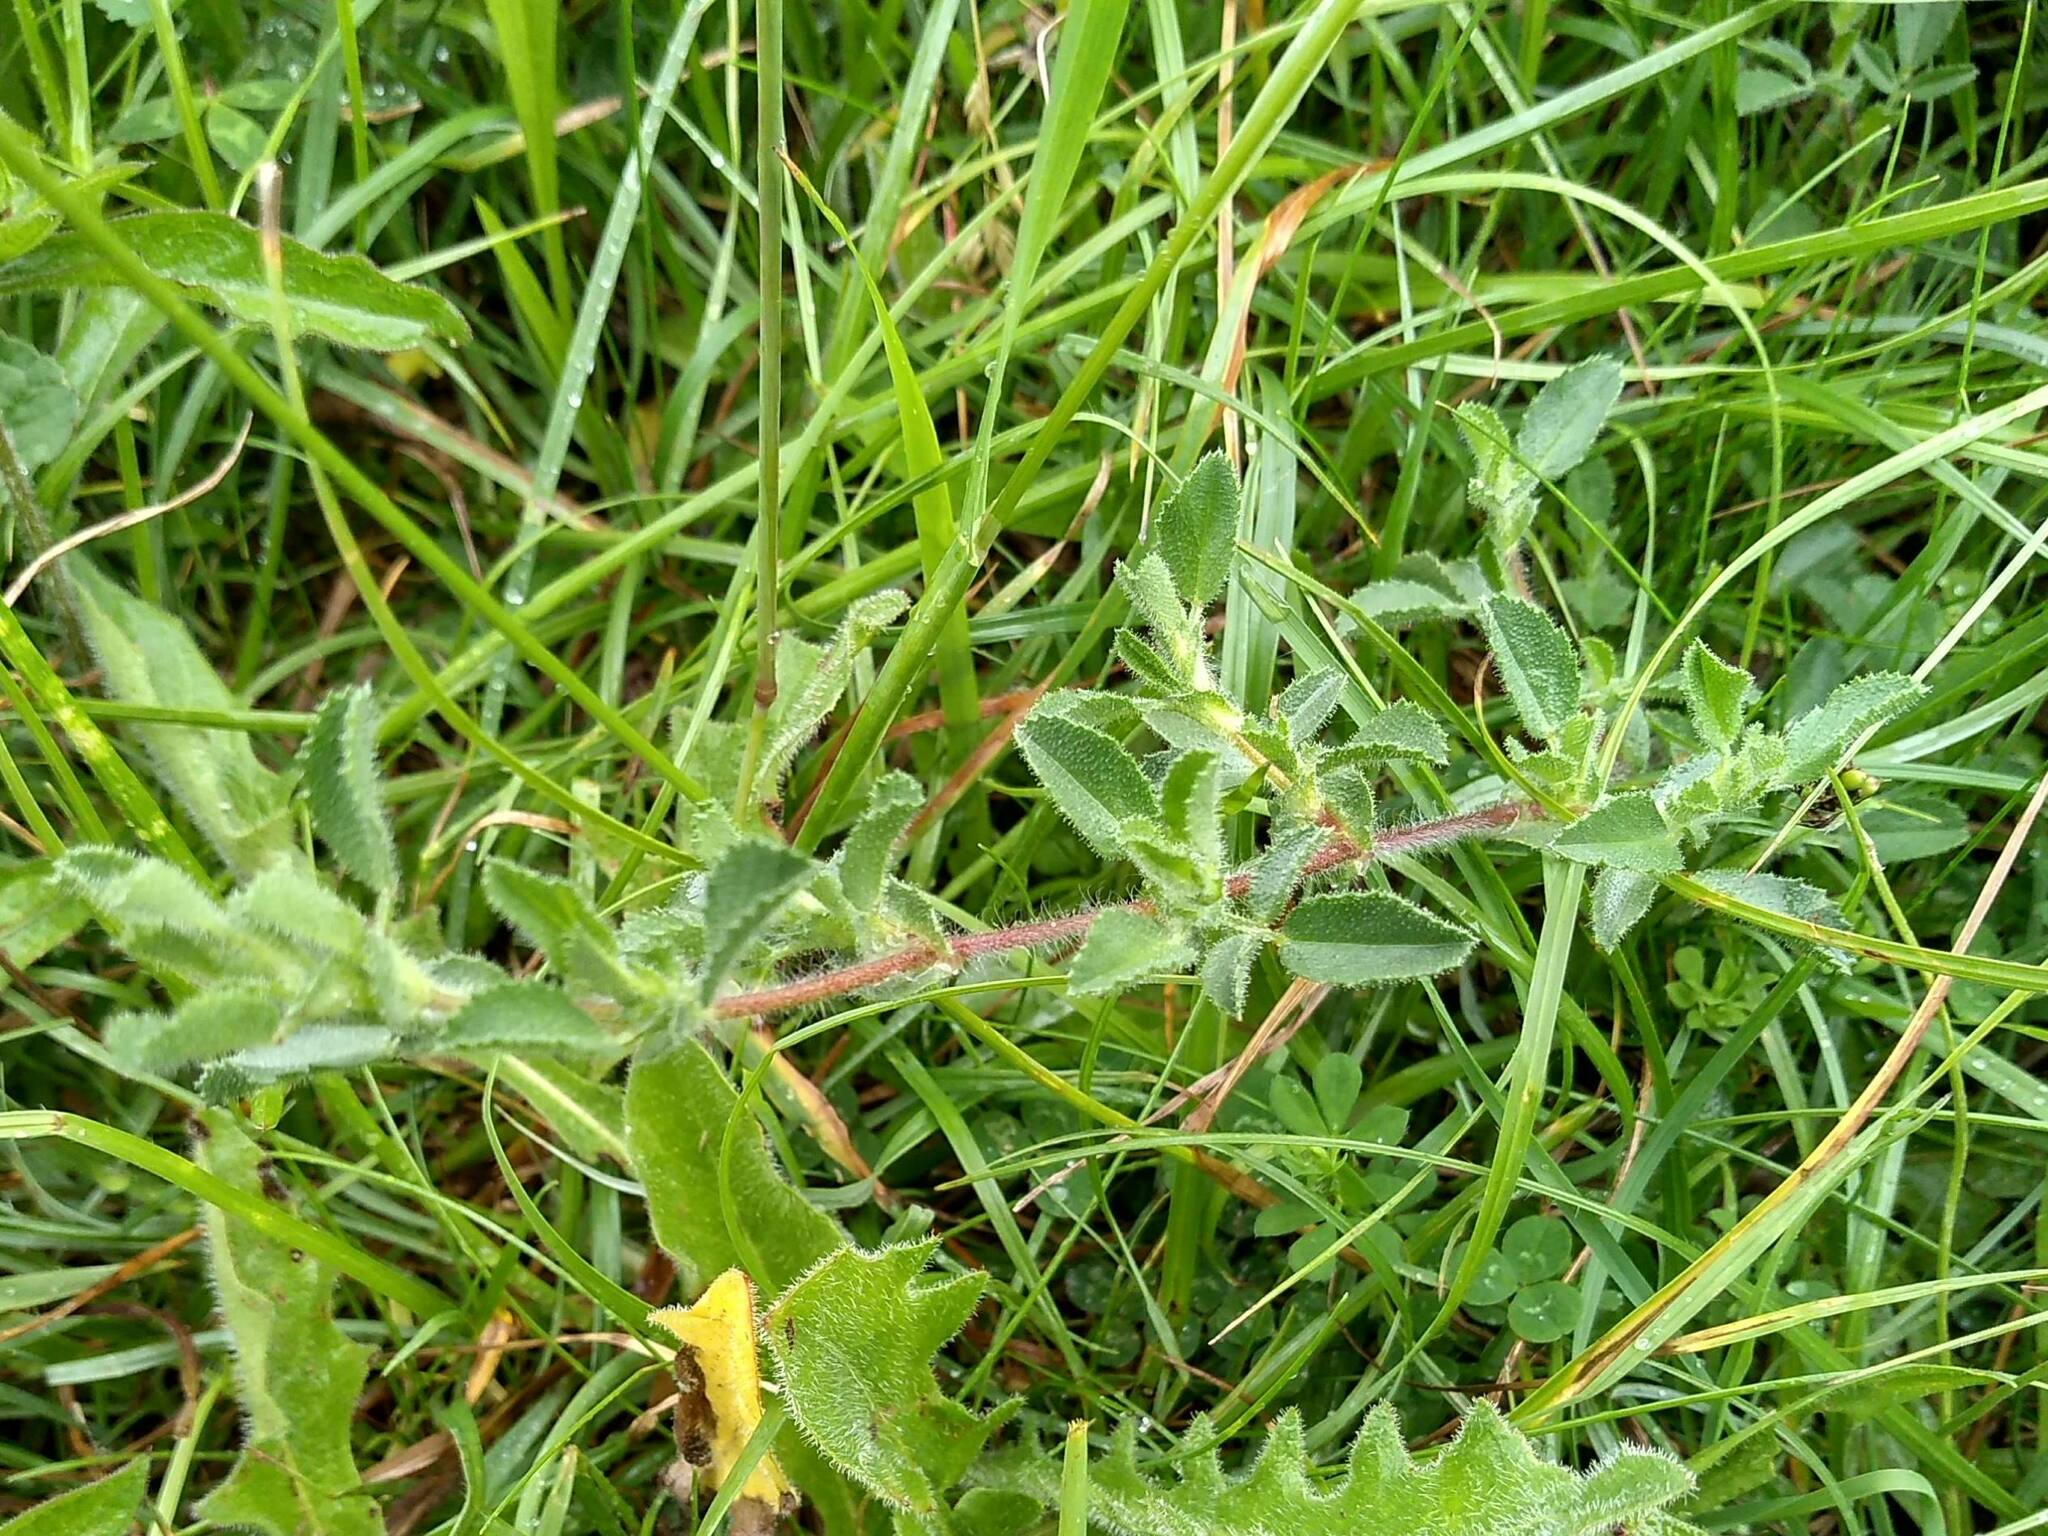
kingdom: Plantae
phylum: Tracheophyta
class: Magnoliopsida
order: Fabales
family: Fabaceae
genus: Ononis
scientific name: Ononis spinosa
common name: Spiny restharrow
